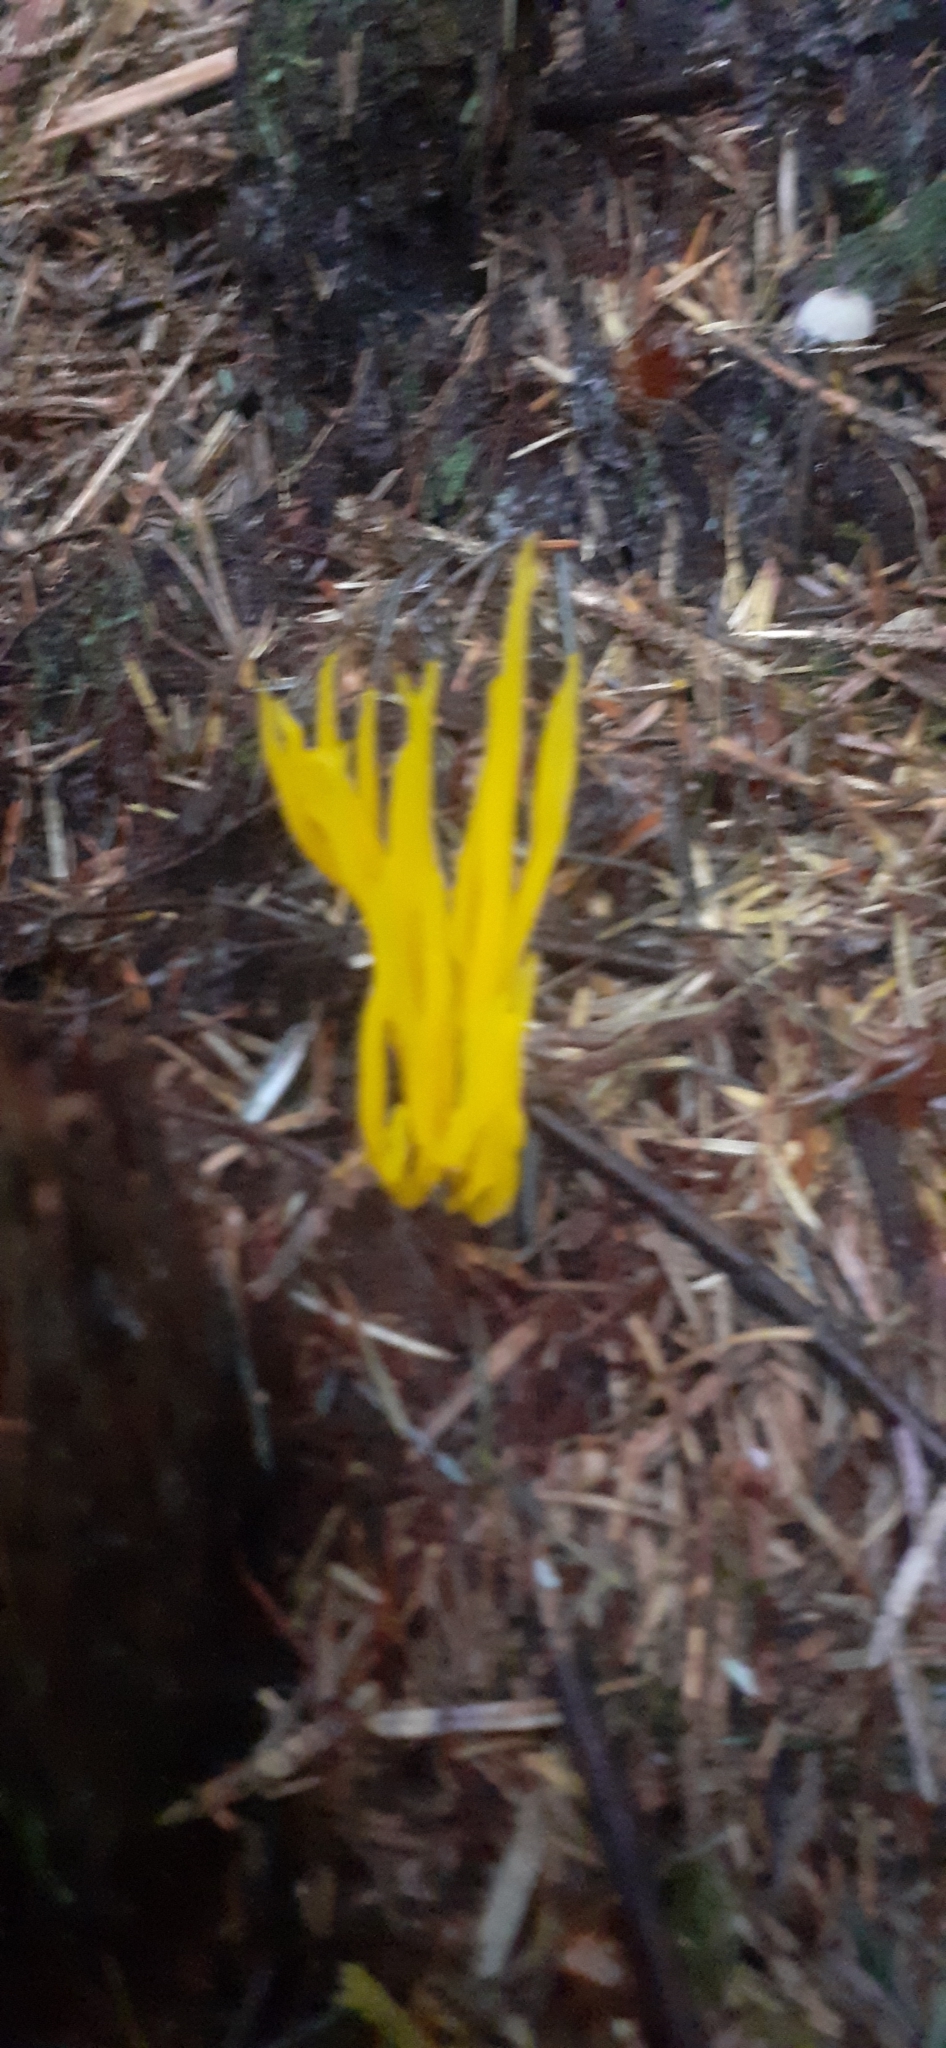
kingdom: Fungi
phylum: Basidiomycota
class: Dacrymycetes
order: Dacrymycetales
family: Dacrymycetaceae
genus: Calocera
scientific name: Calocera viscosa
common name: Yellow stagshorn
